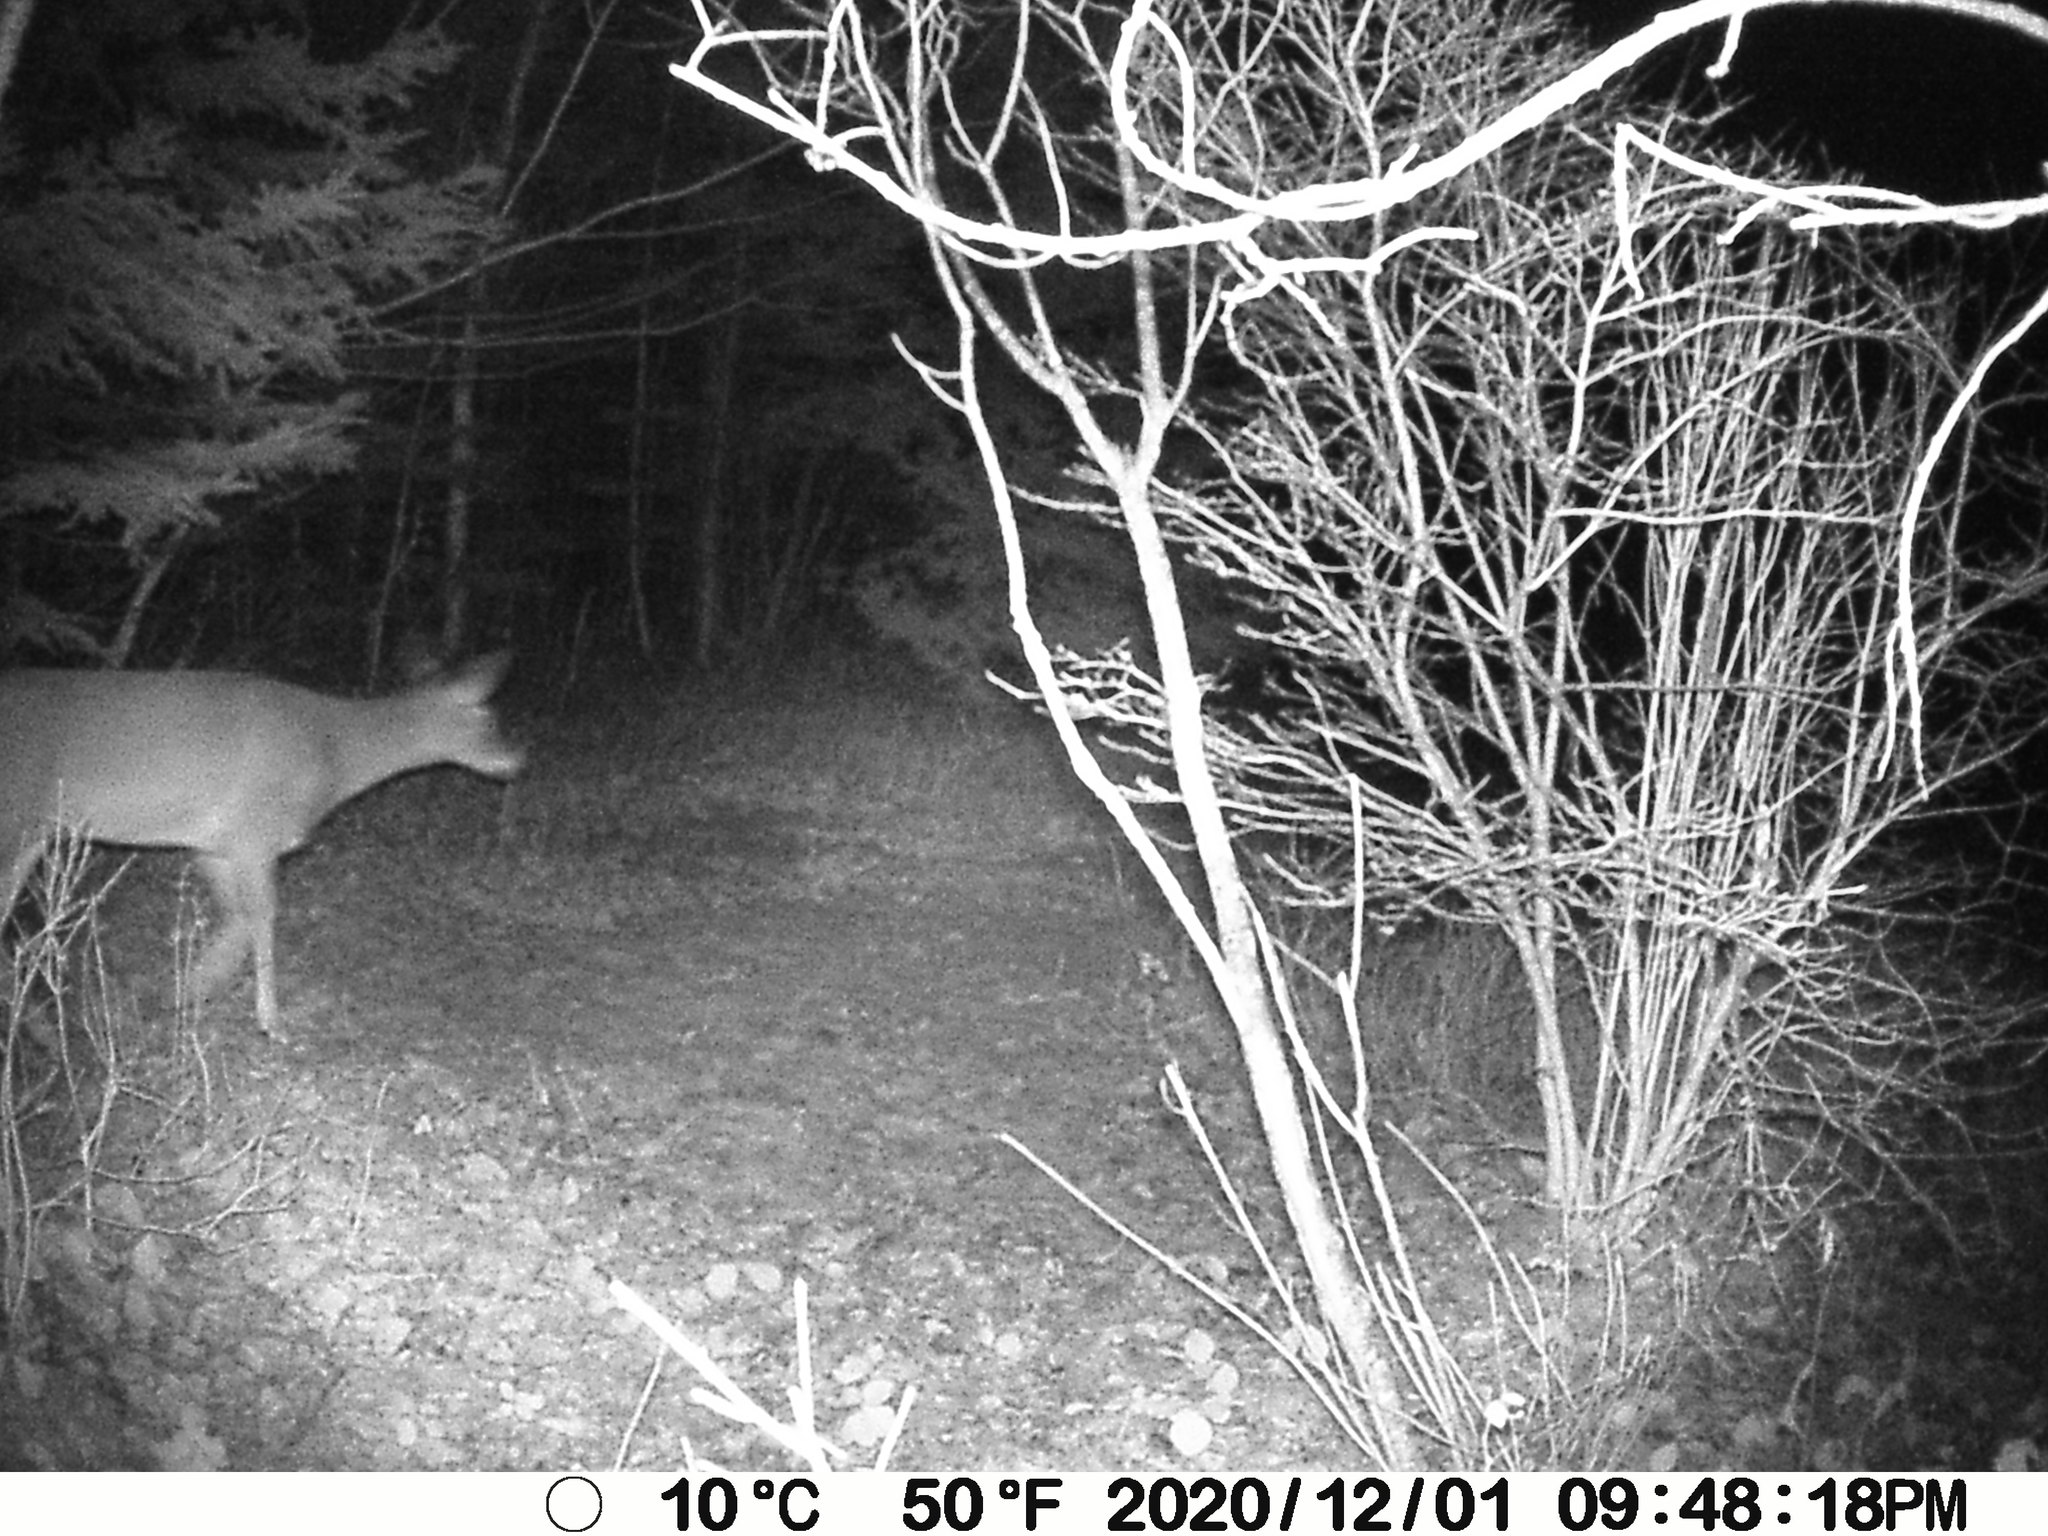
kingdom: Animalia
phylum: Chordata
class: Mammalia
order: Artiodactyla
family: Cervidae
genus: Odocoileus
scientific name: Odocoileus virginianus
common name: White-tailed deer
